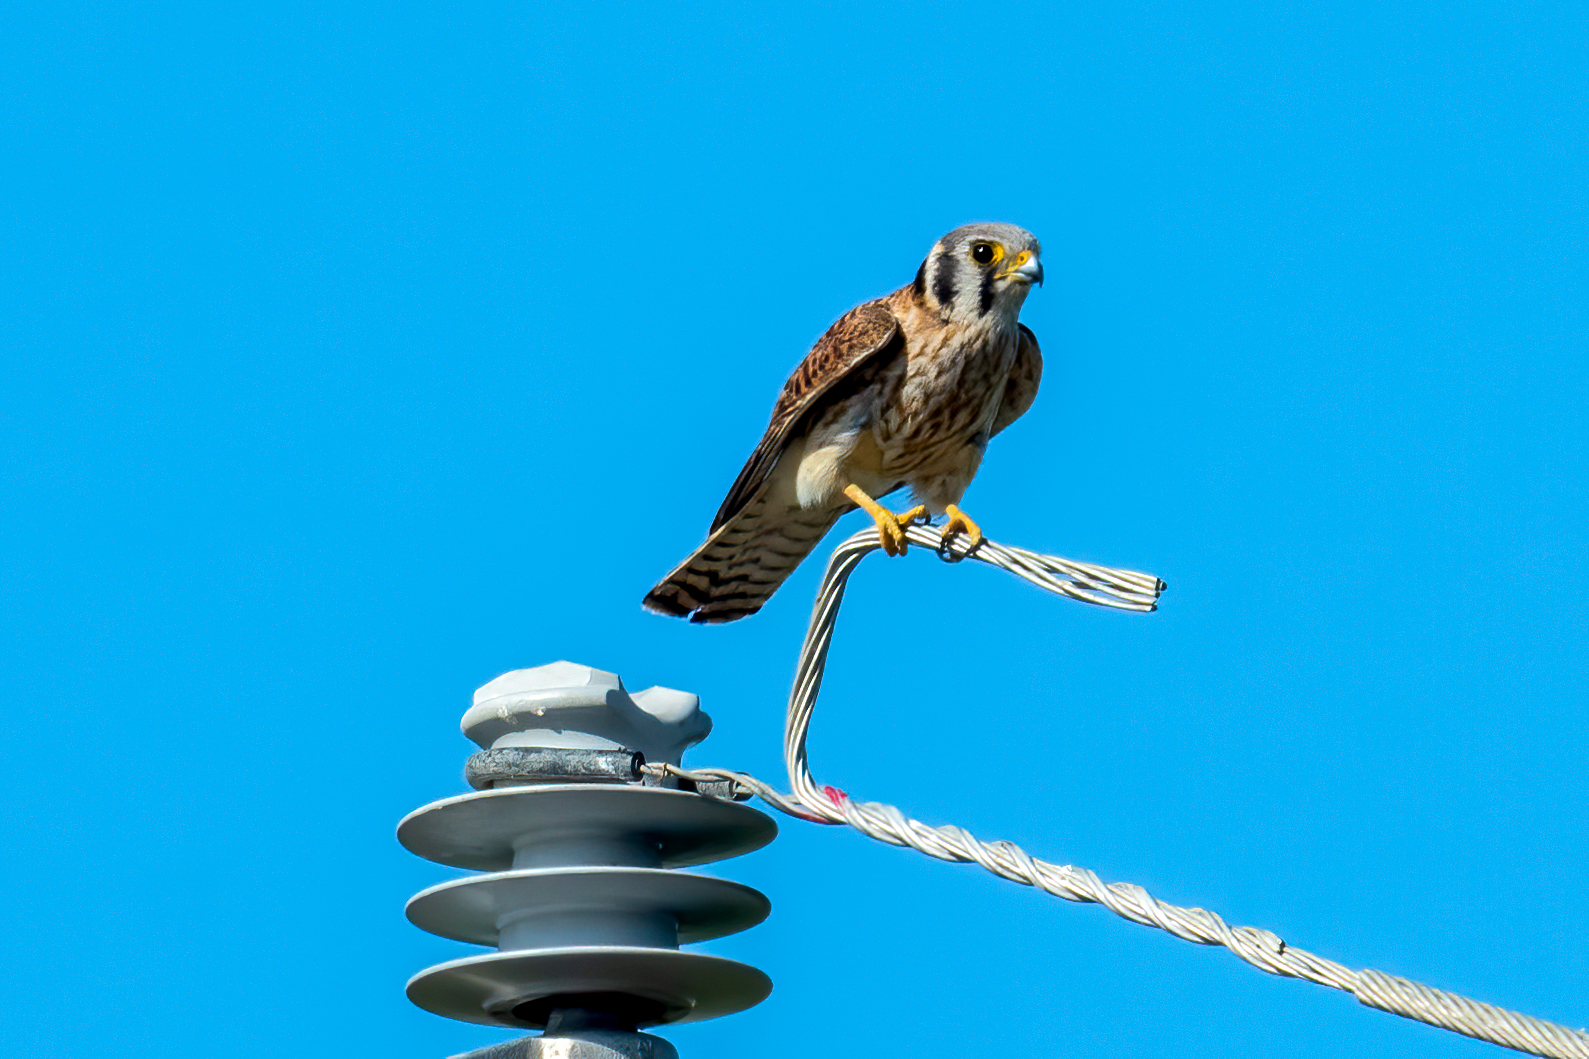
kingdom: Animalia
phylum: Chordata
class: Aves
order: Falconiformes
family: Falconidae
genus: Falco
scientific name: Falco sparverius
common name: American kestrel
